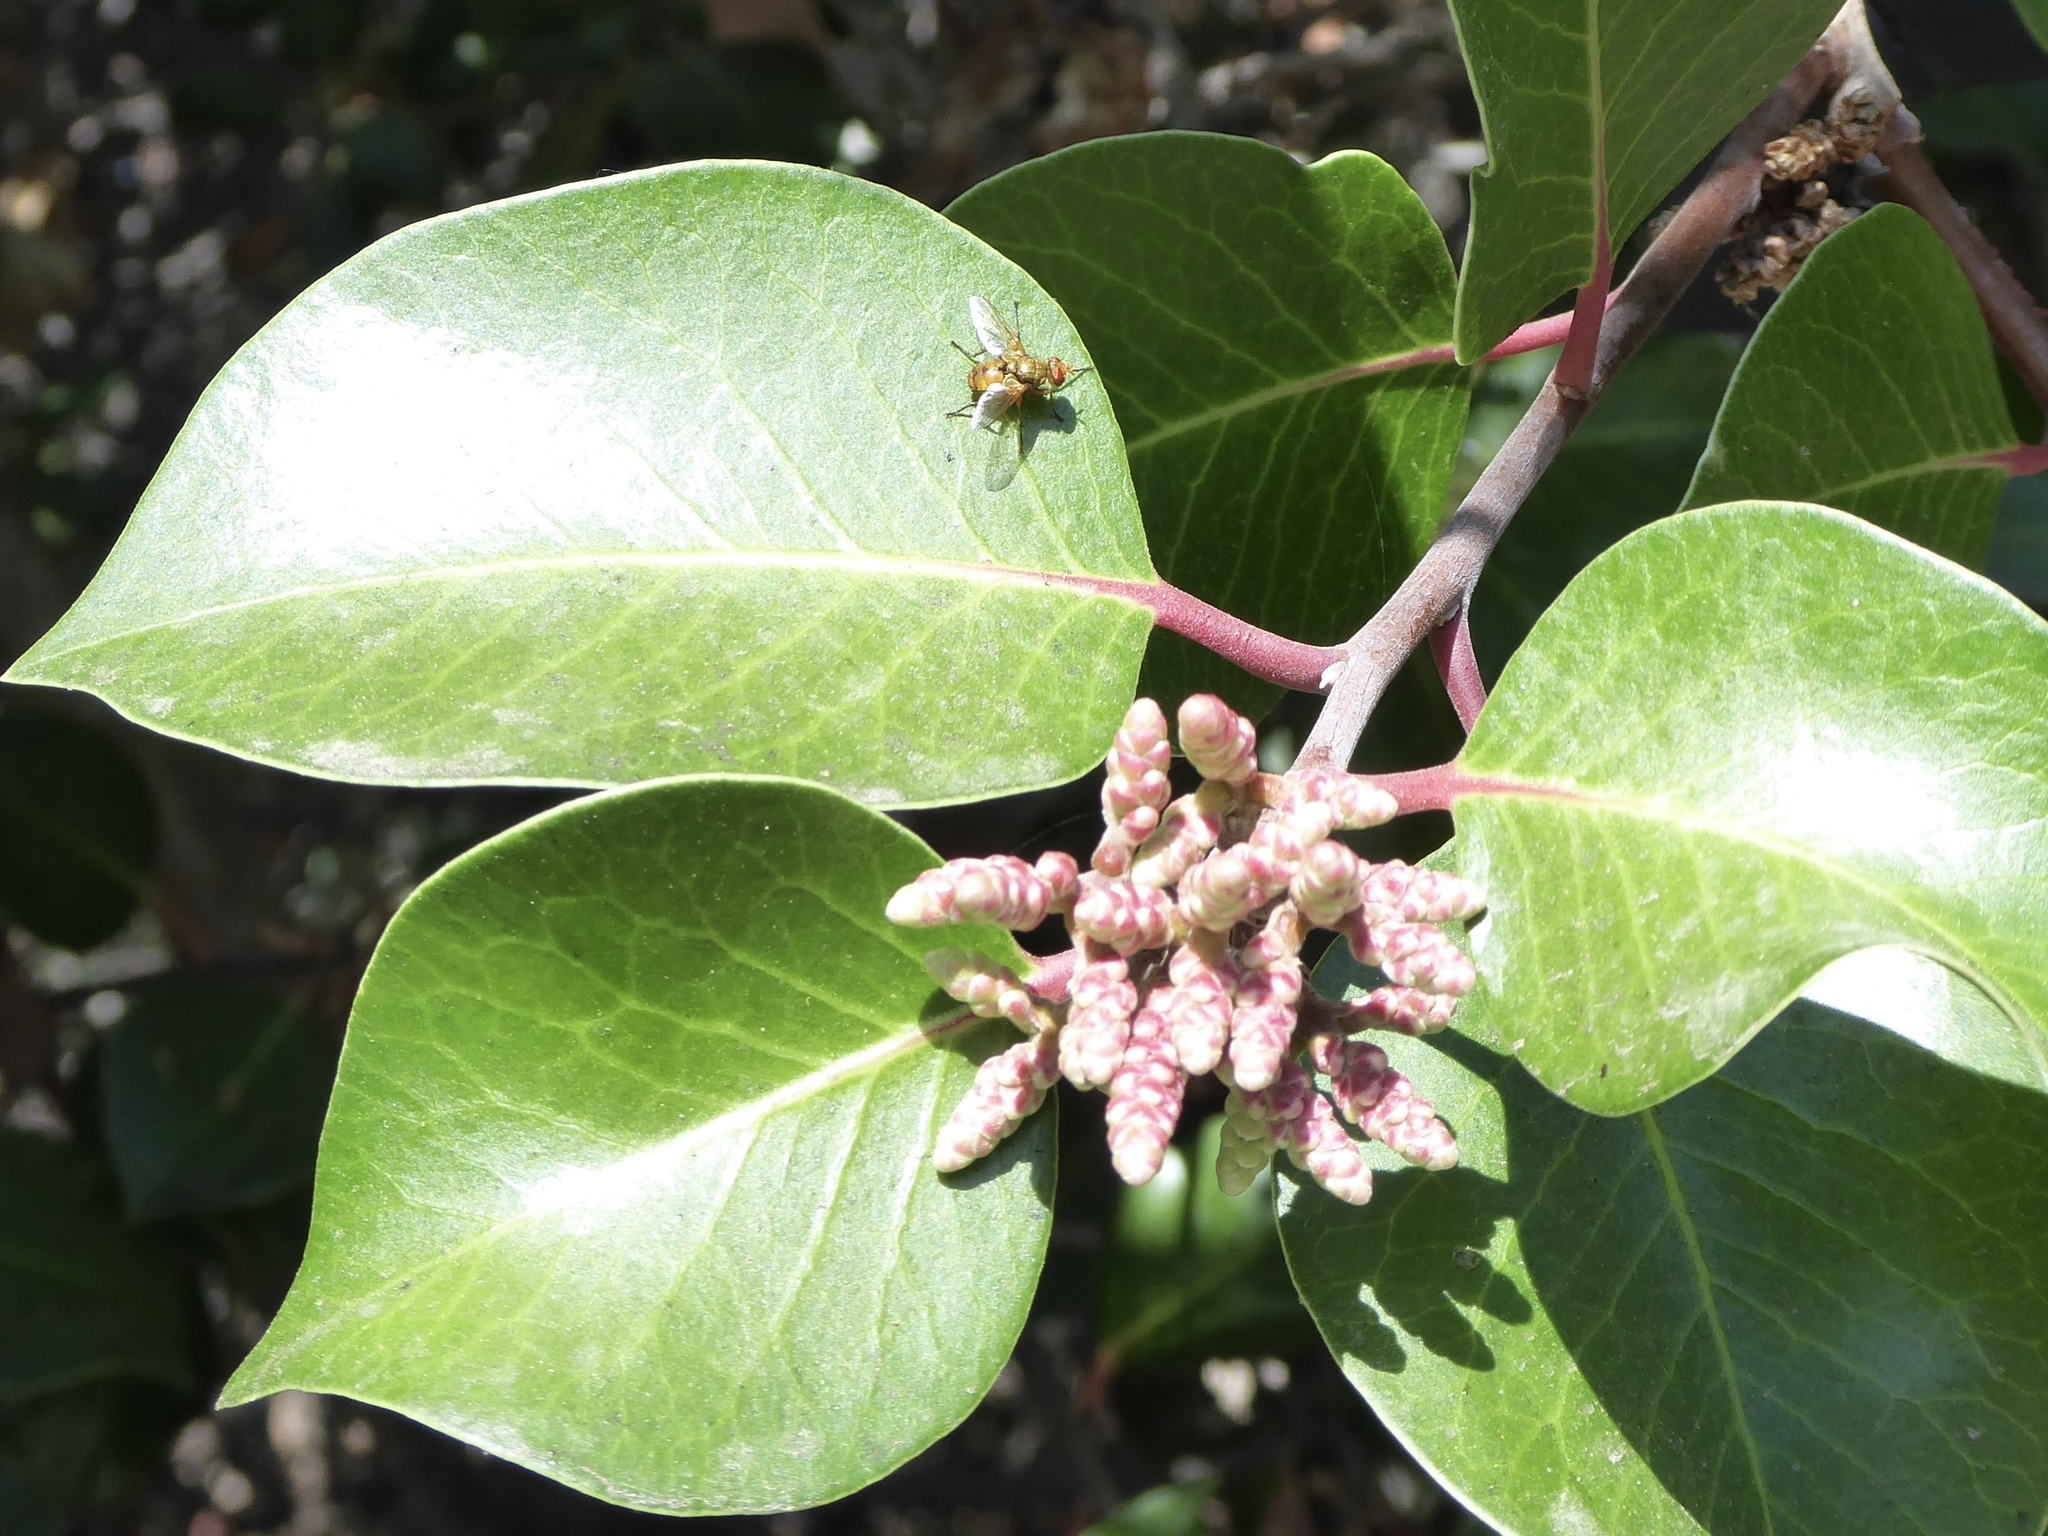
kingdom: Animalia
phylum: Arthropoda
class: Insecta
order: Diptera
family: Tachinidae
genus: Euclytia
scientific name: Euclytia flava
